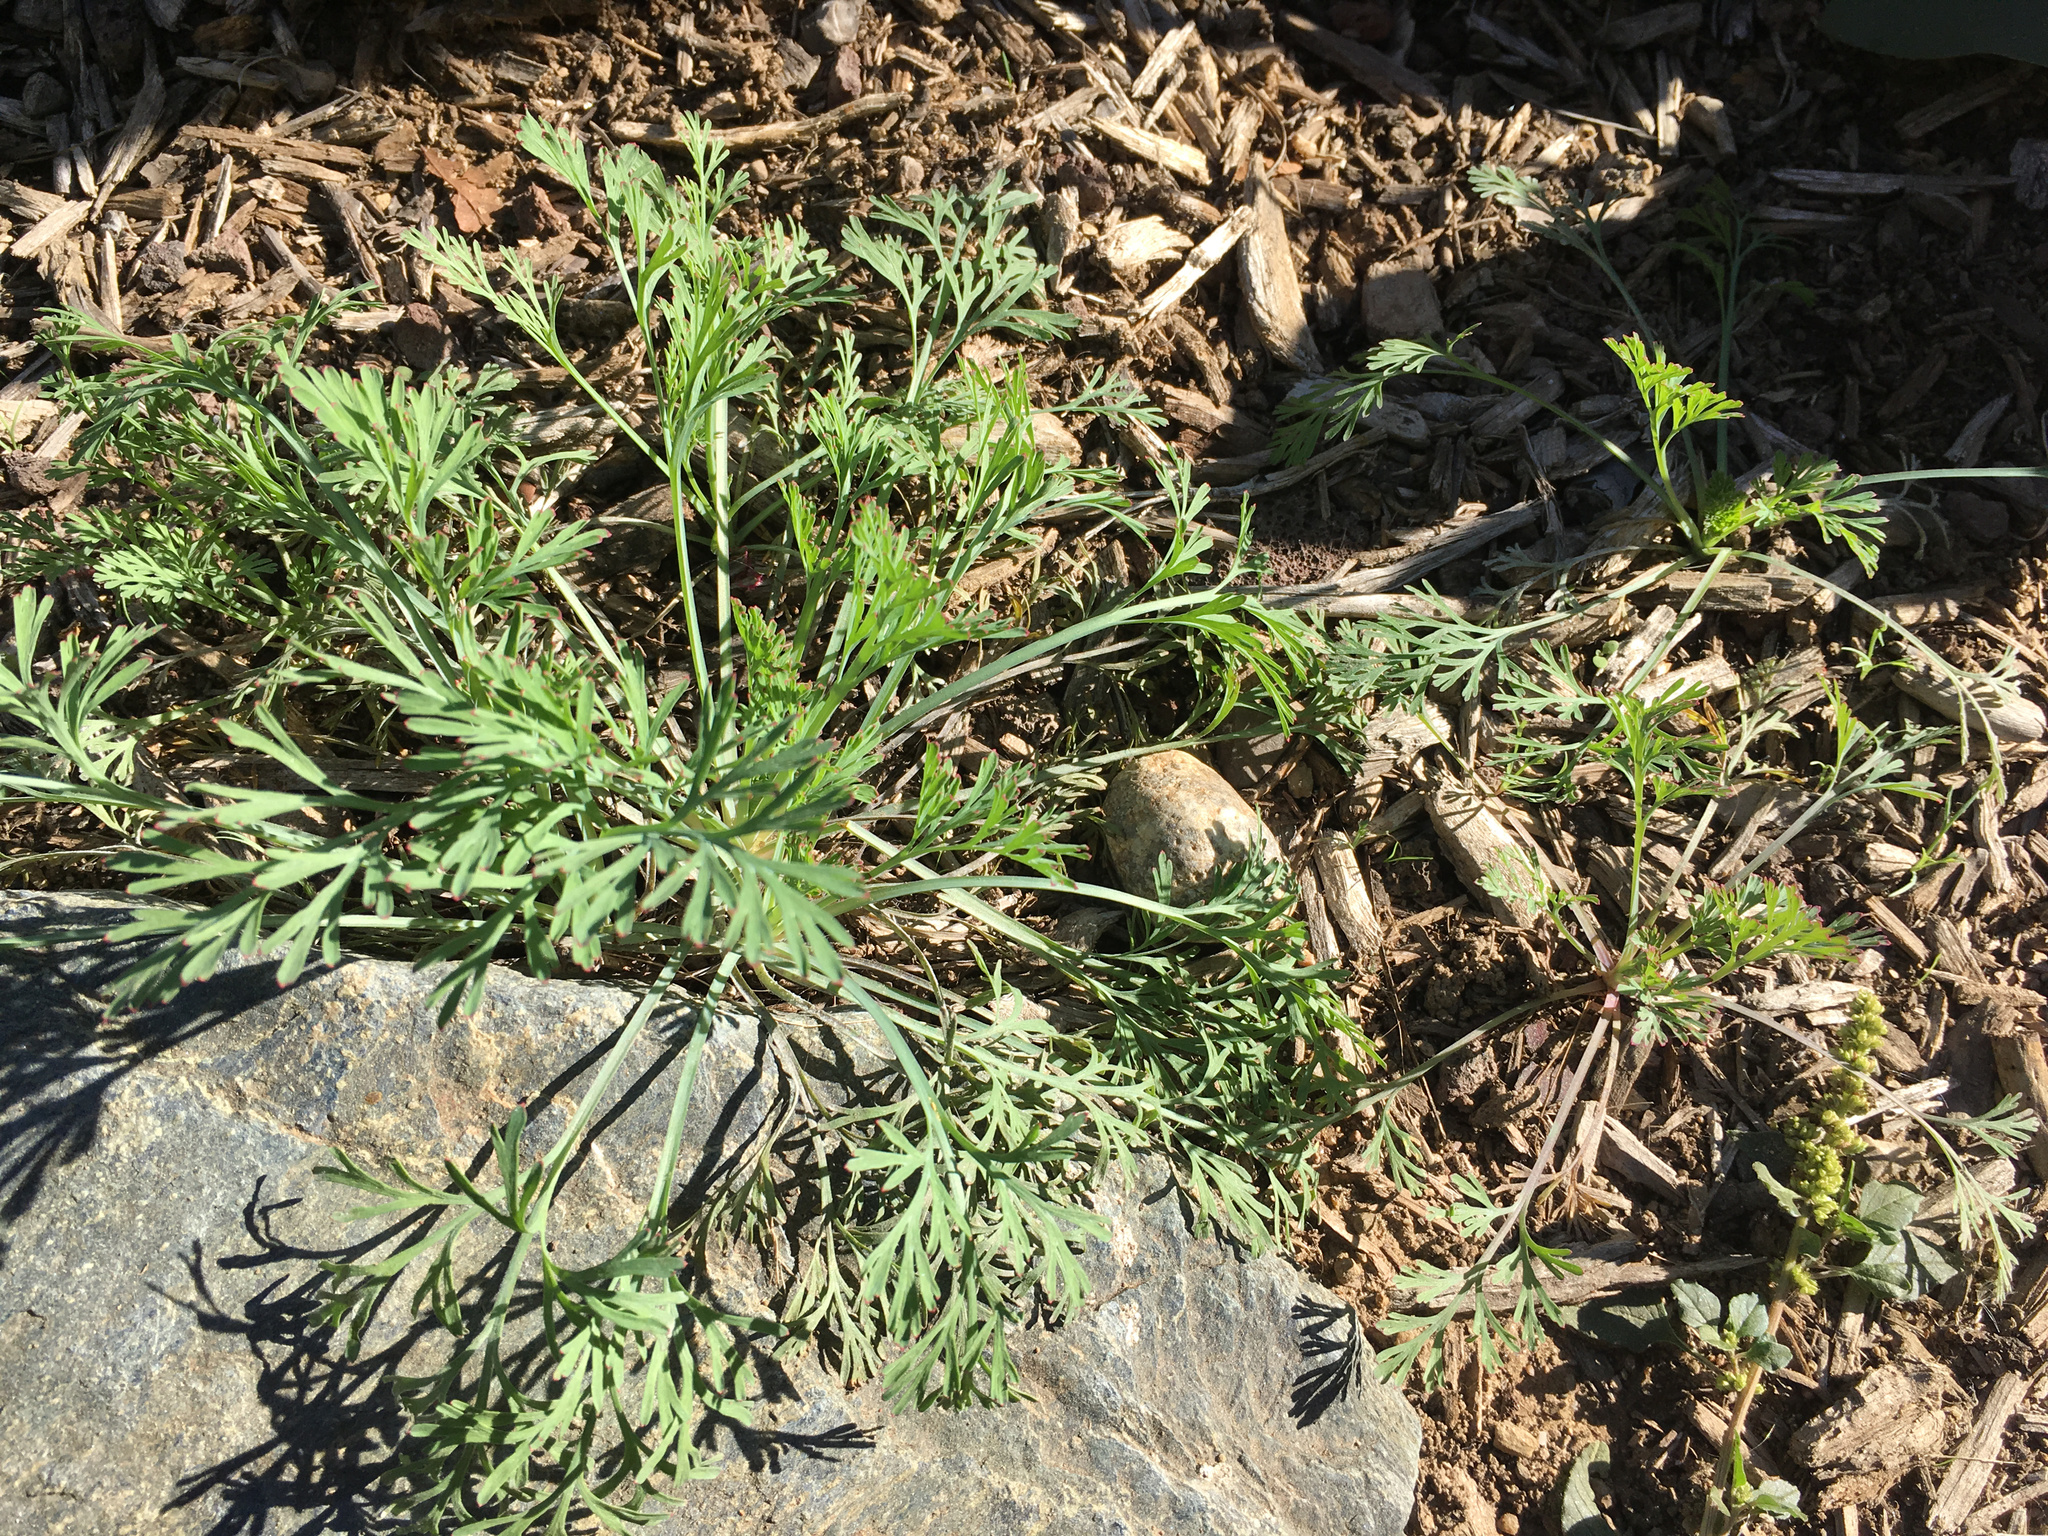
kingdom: Plantae
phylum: Tracheophyta
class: Magnoliopsida
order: Ranunculales
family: Papaveraceae
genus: Eschscholzia
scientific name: Eschscholzia californica
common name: California poppy
